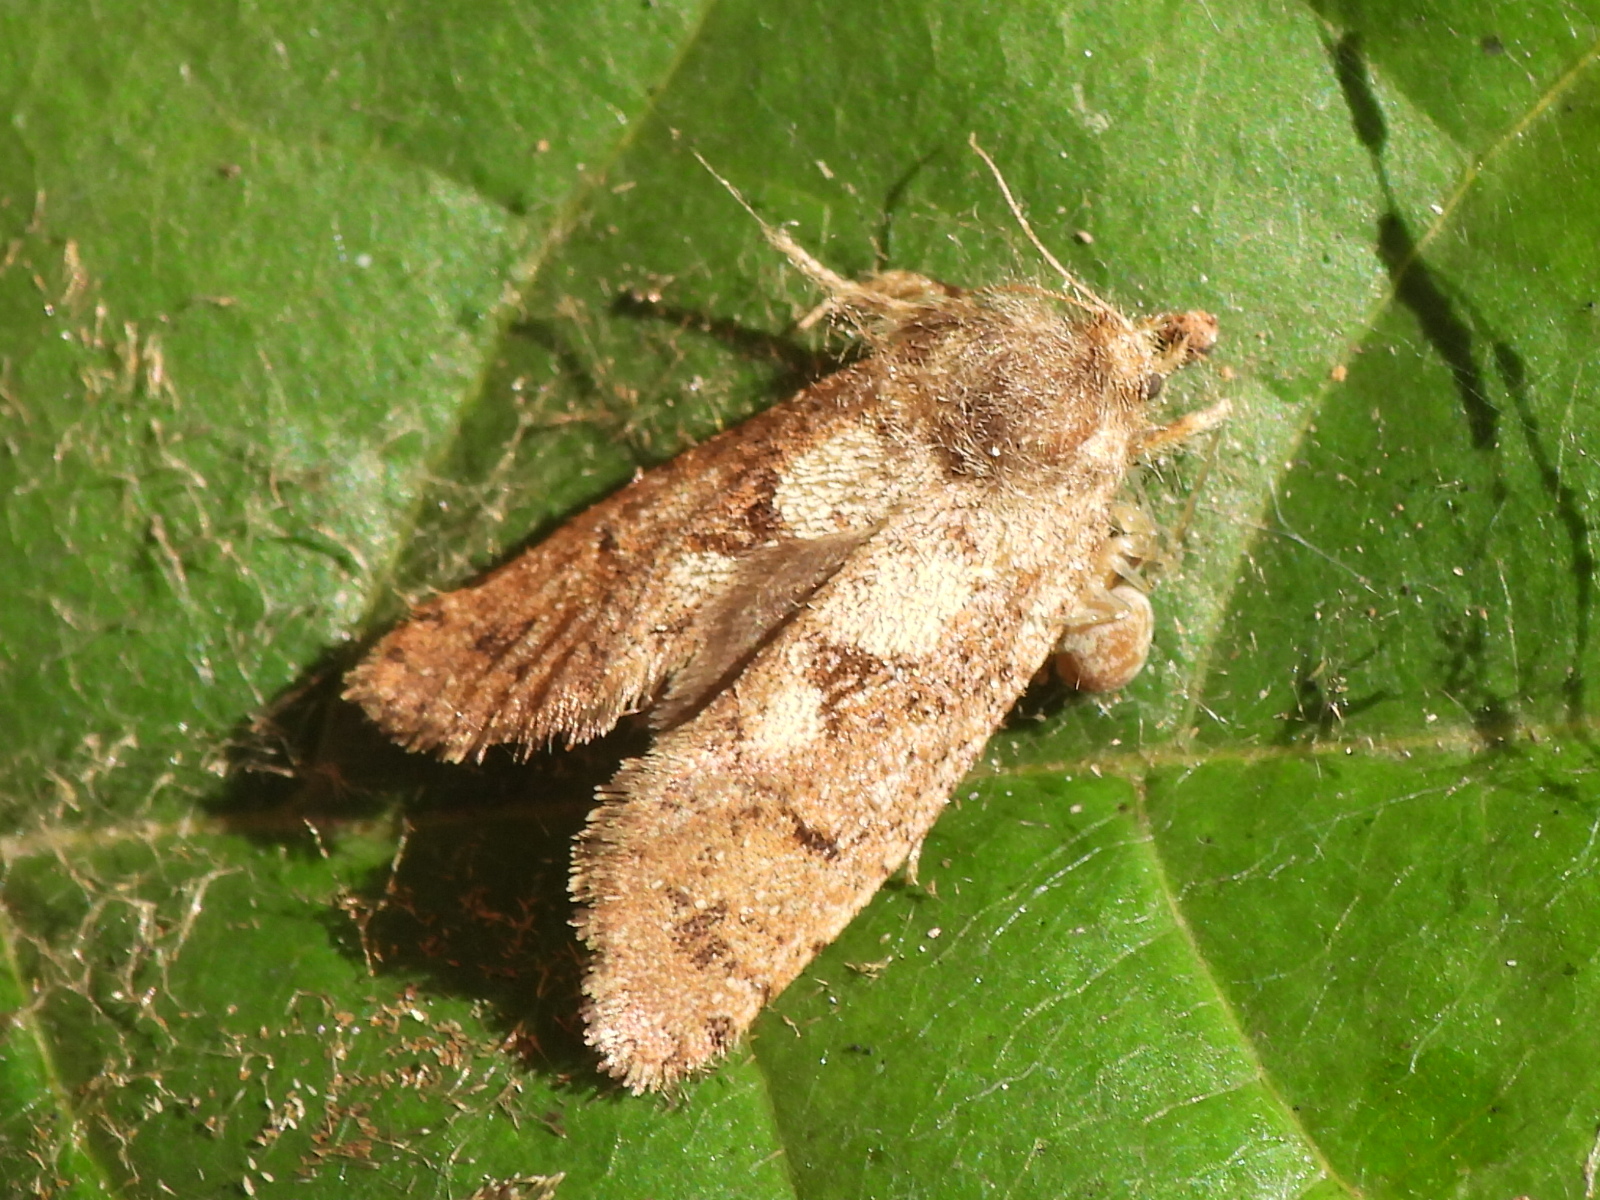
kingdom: Animalia
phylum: Arthropoda
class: Insecta
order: Lepidoptera
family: Tineidae
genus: Acrolophus
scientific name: Acrolophus mora
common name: Dark acrolophus
